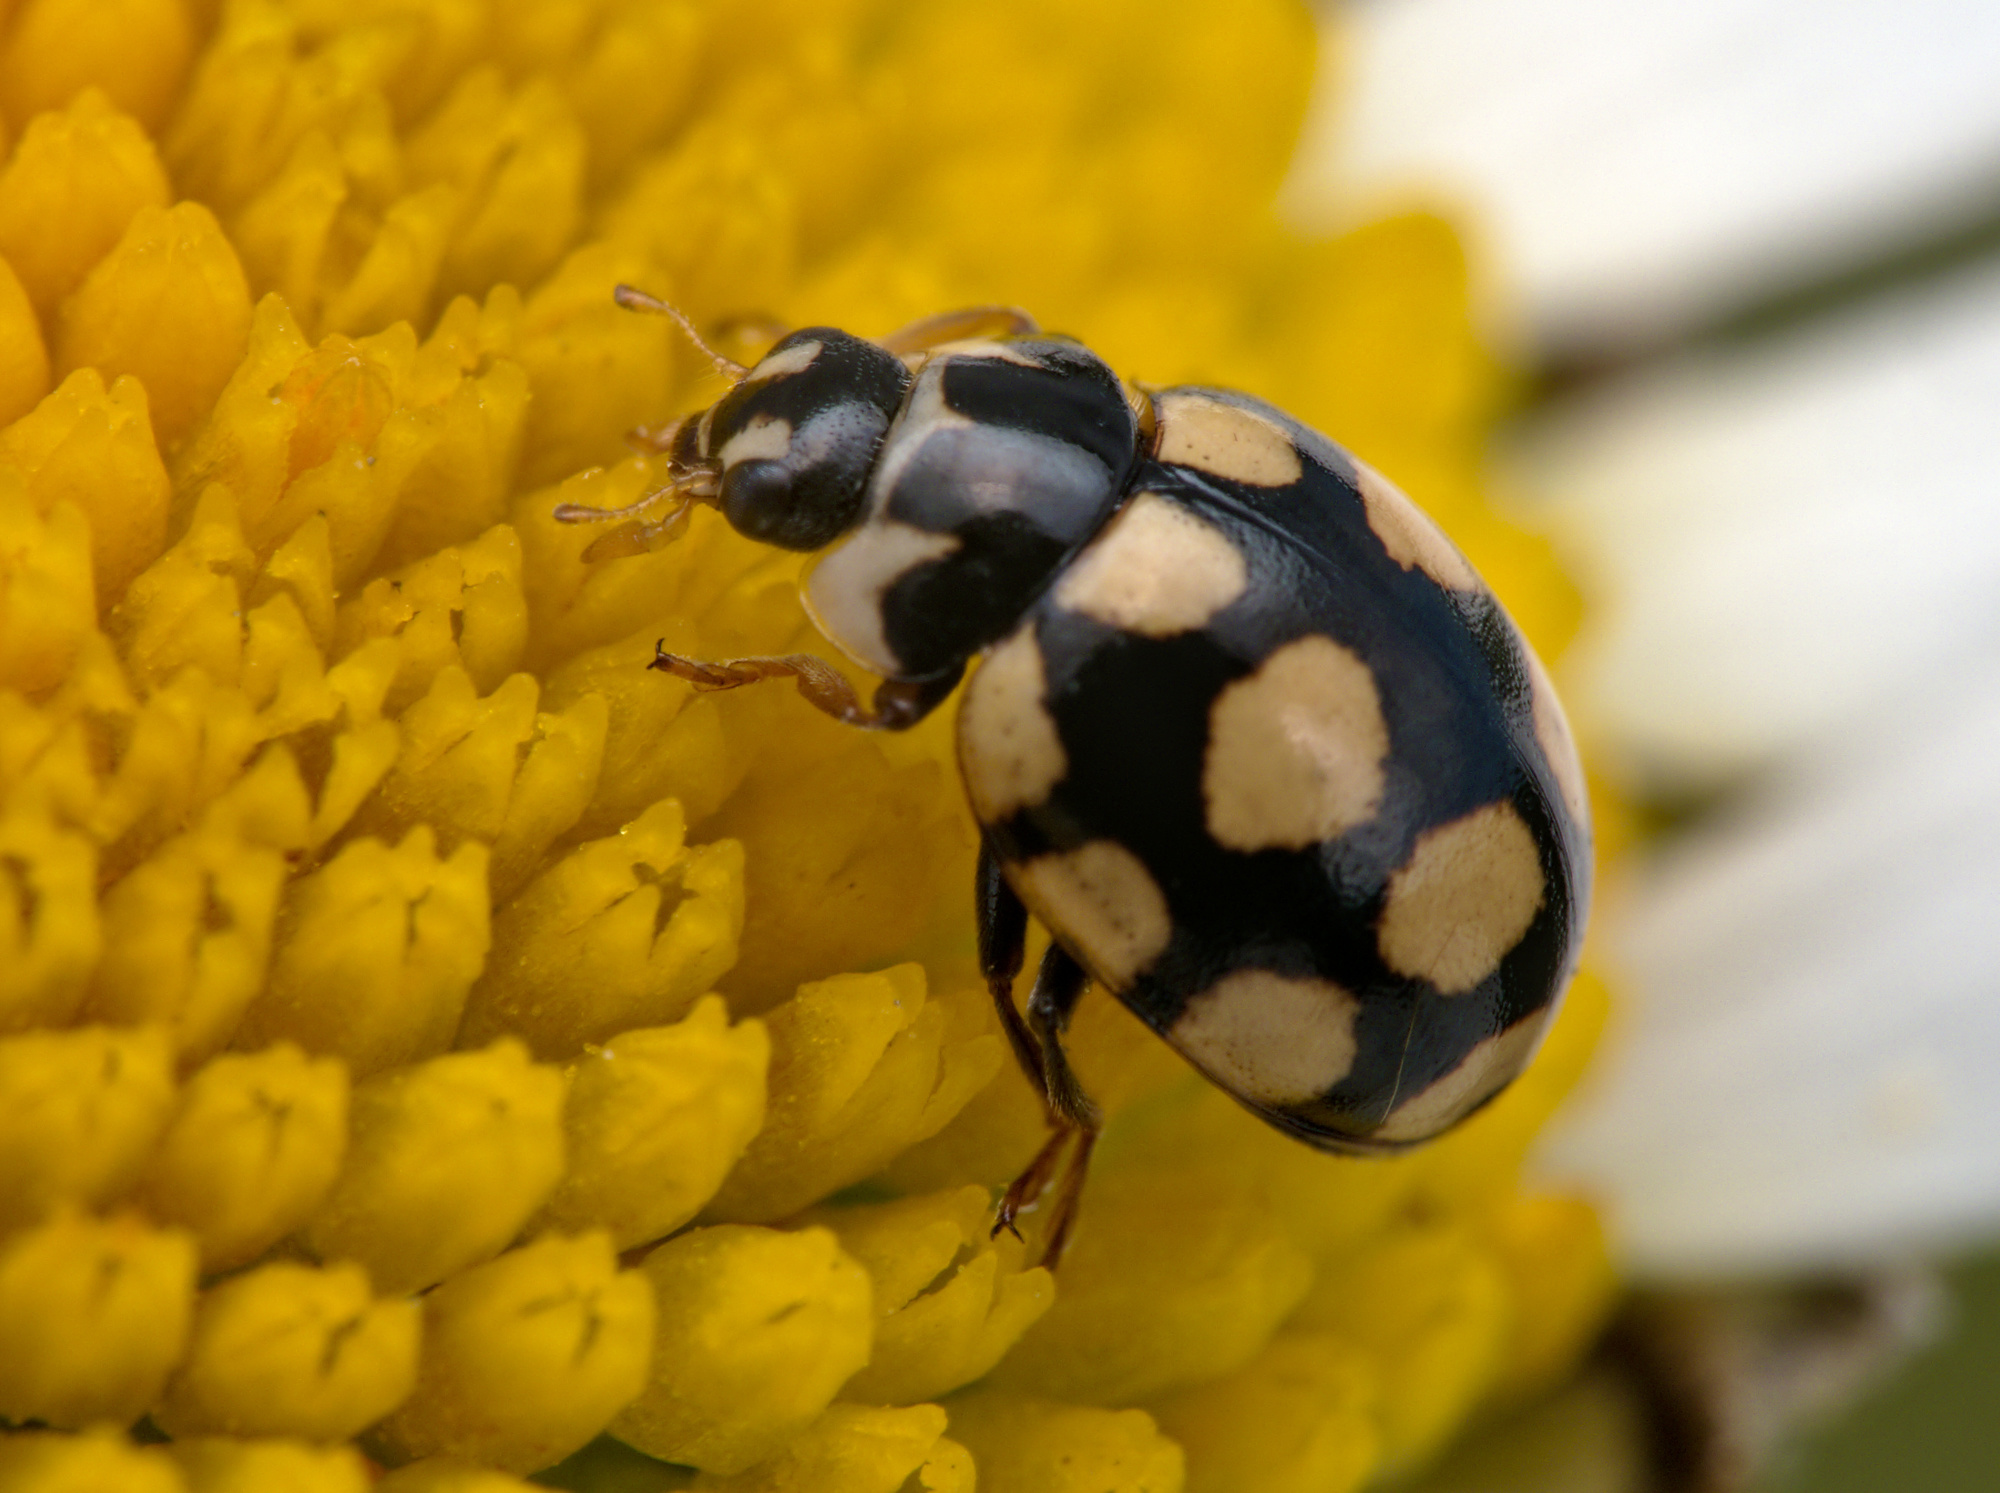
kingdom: Animalia
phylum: Arthropoda
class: Insecta
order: Coleoptera
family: Coccinellidae
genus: Coccinula
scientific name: Coccinula quatuordecimpustulata
